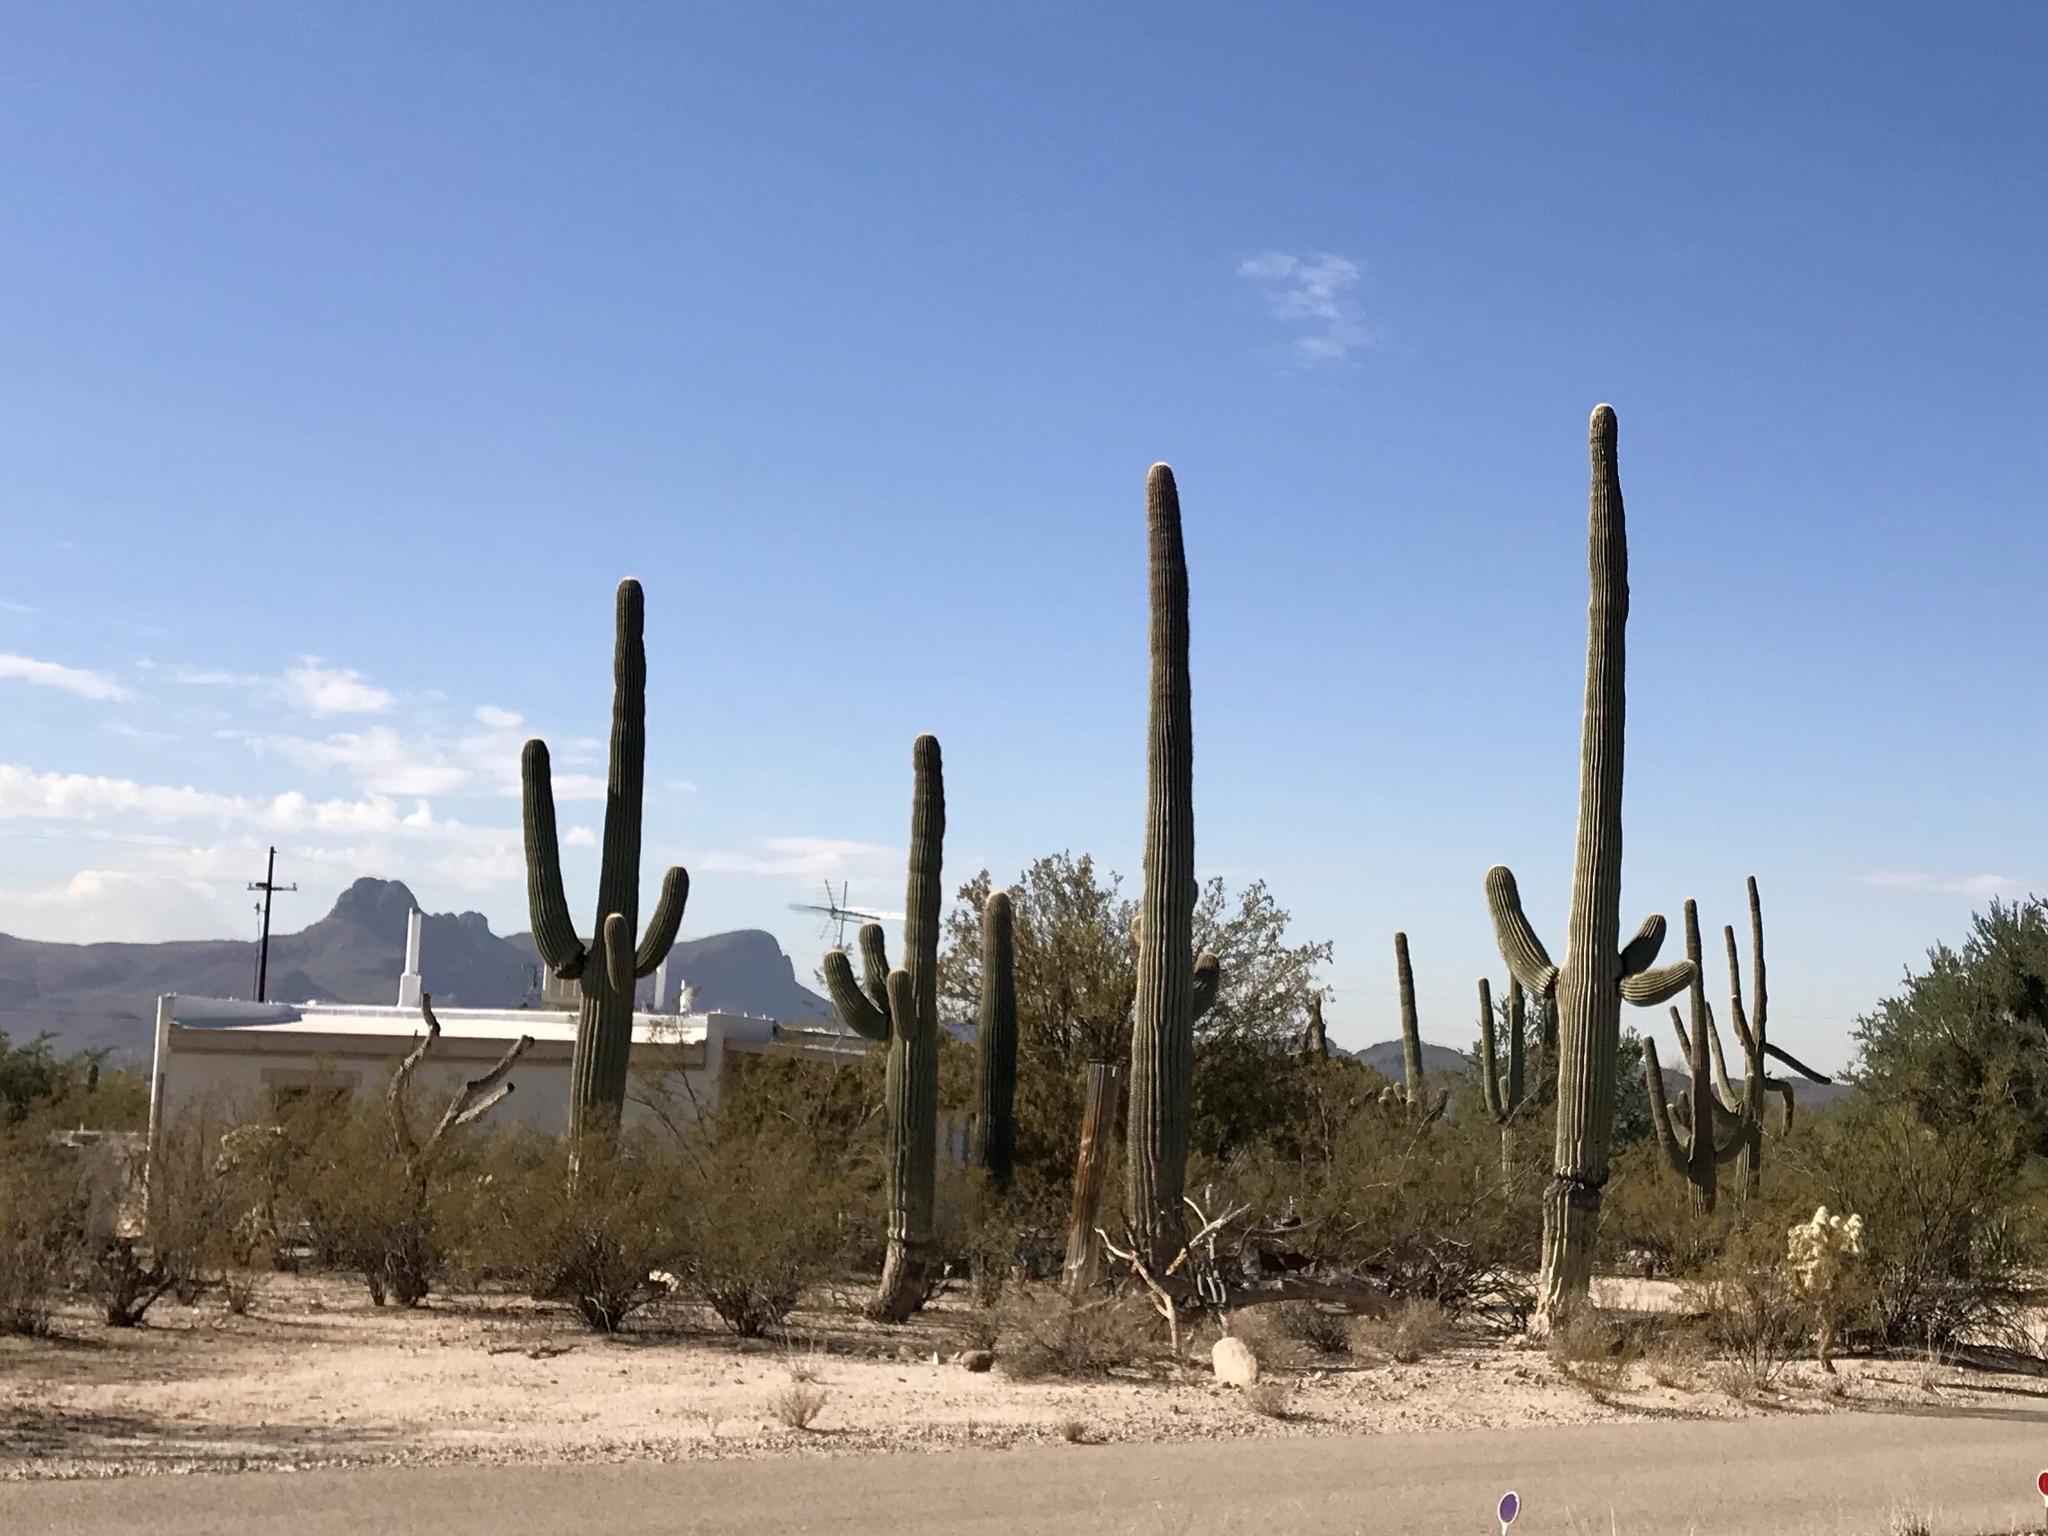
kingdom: Plantae
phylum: Tracheophyta
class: Magnoliopsida
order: Caryophyllales
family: Cactaceae
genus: Carnegiea
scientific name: Carnegiea gigantea
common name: Saguaro
